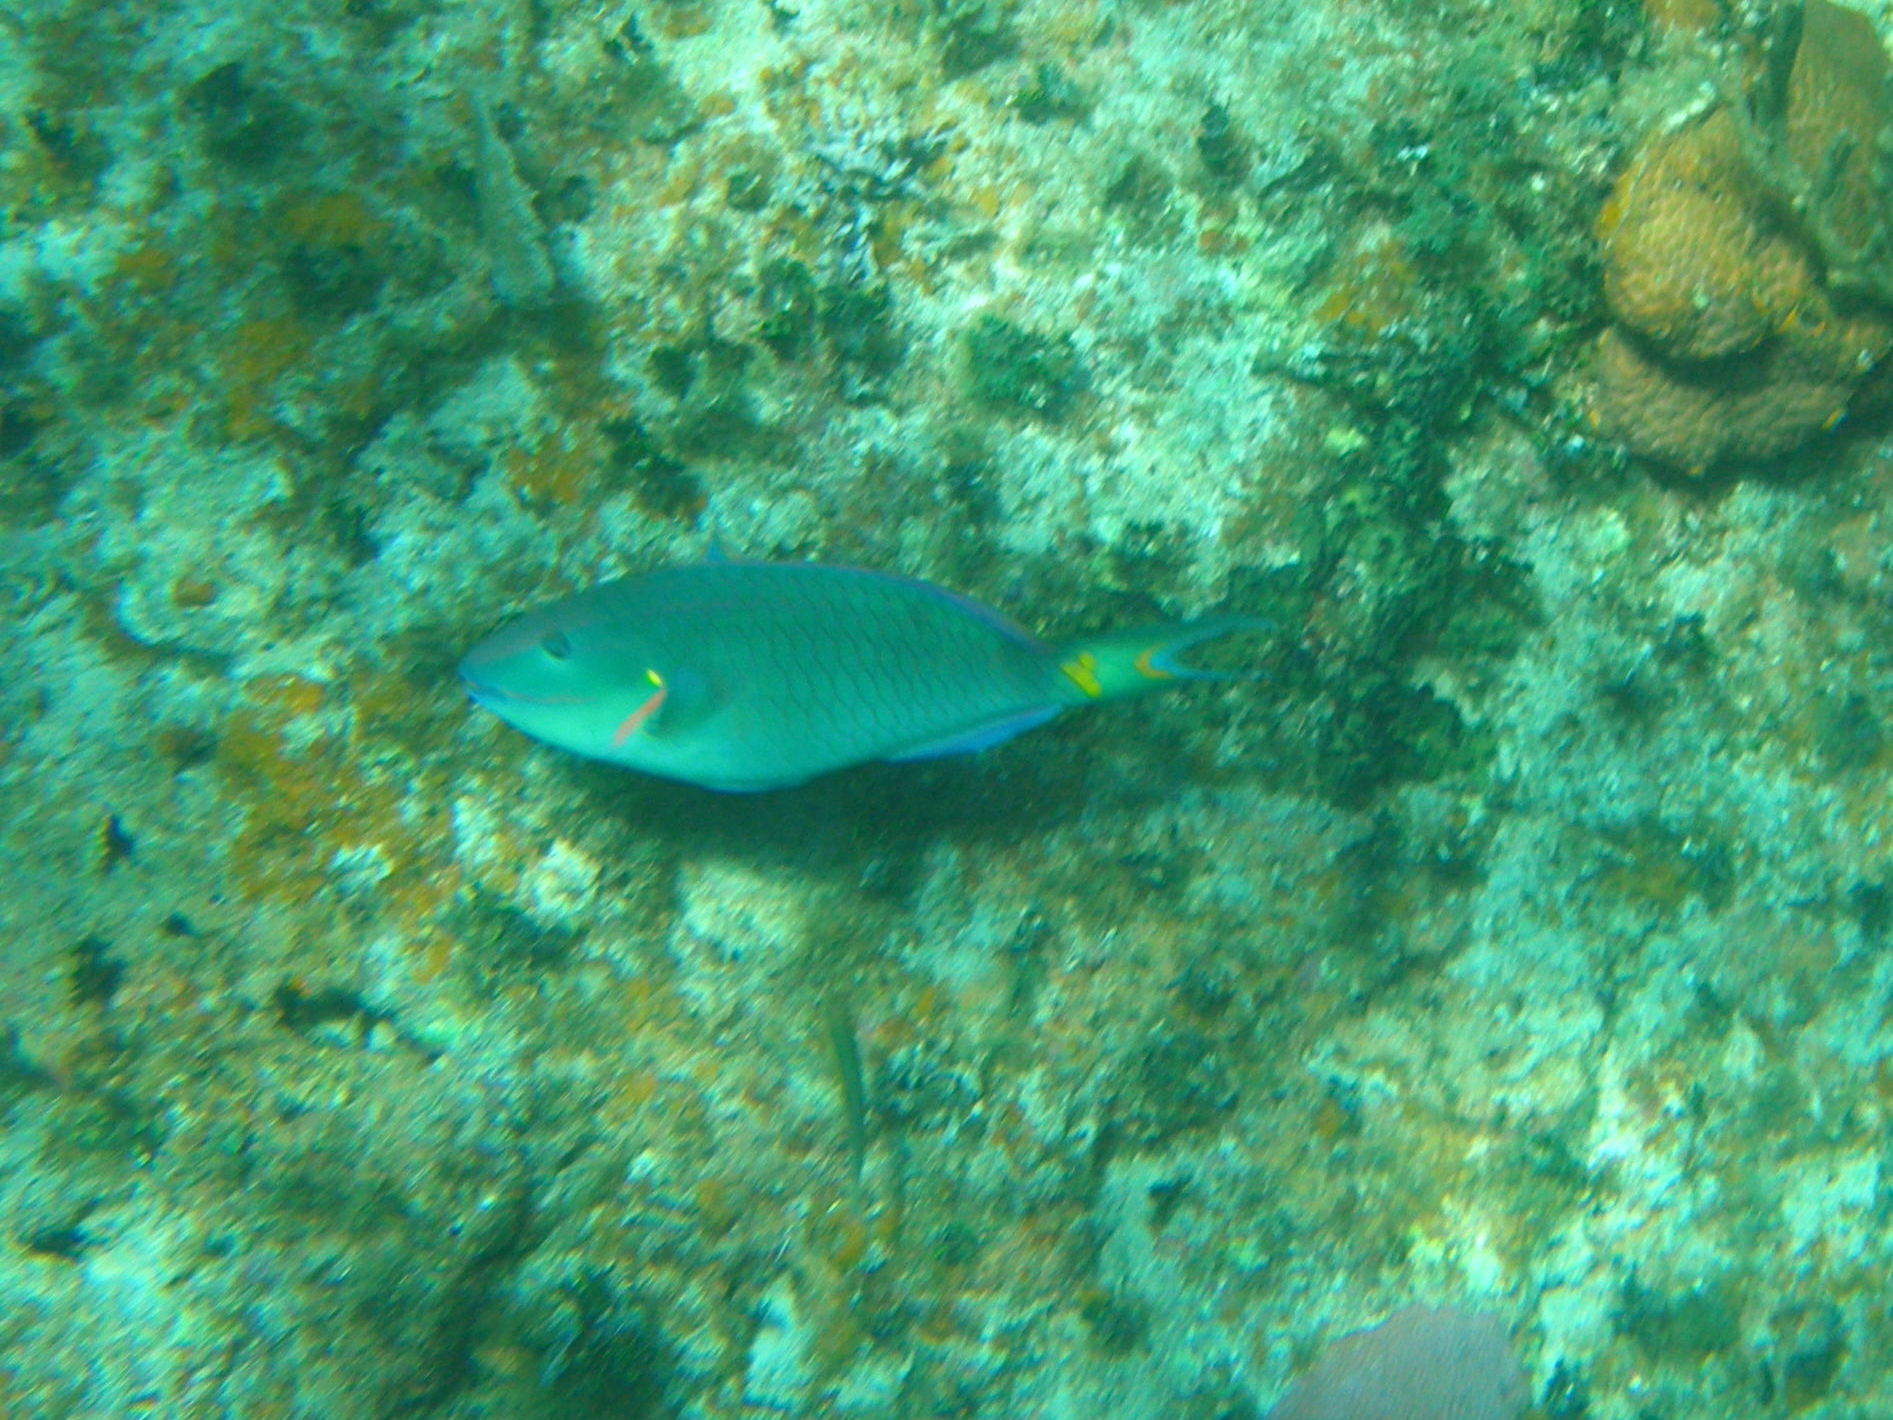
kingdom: Animalia
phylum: Chordata
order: Perciformes
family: Scaridae
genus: Sparisoma
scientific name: Sparisoma viride
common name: Stoplight parrotfish
